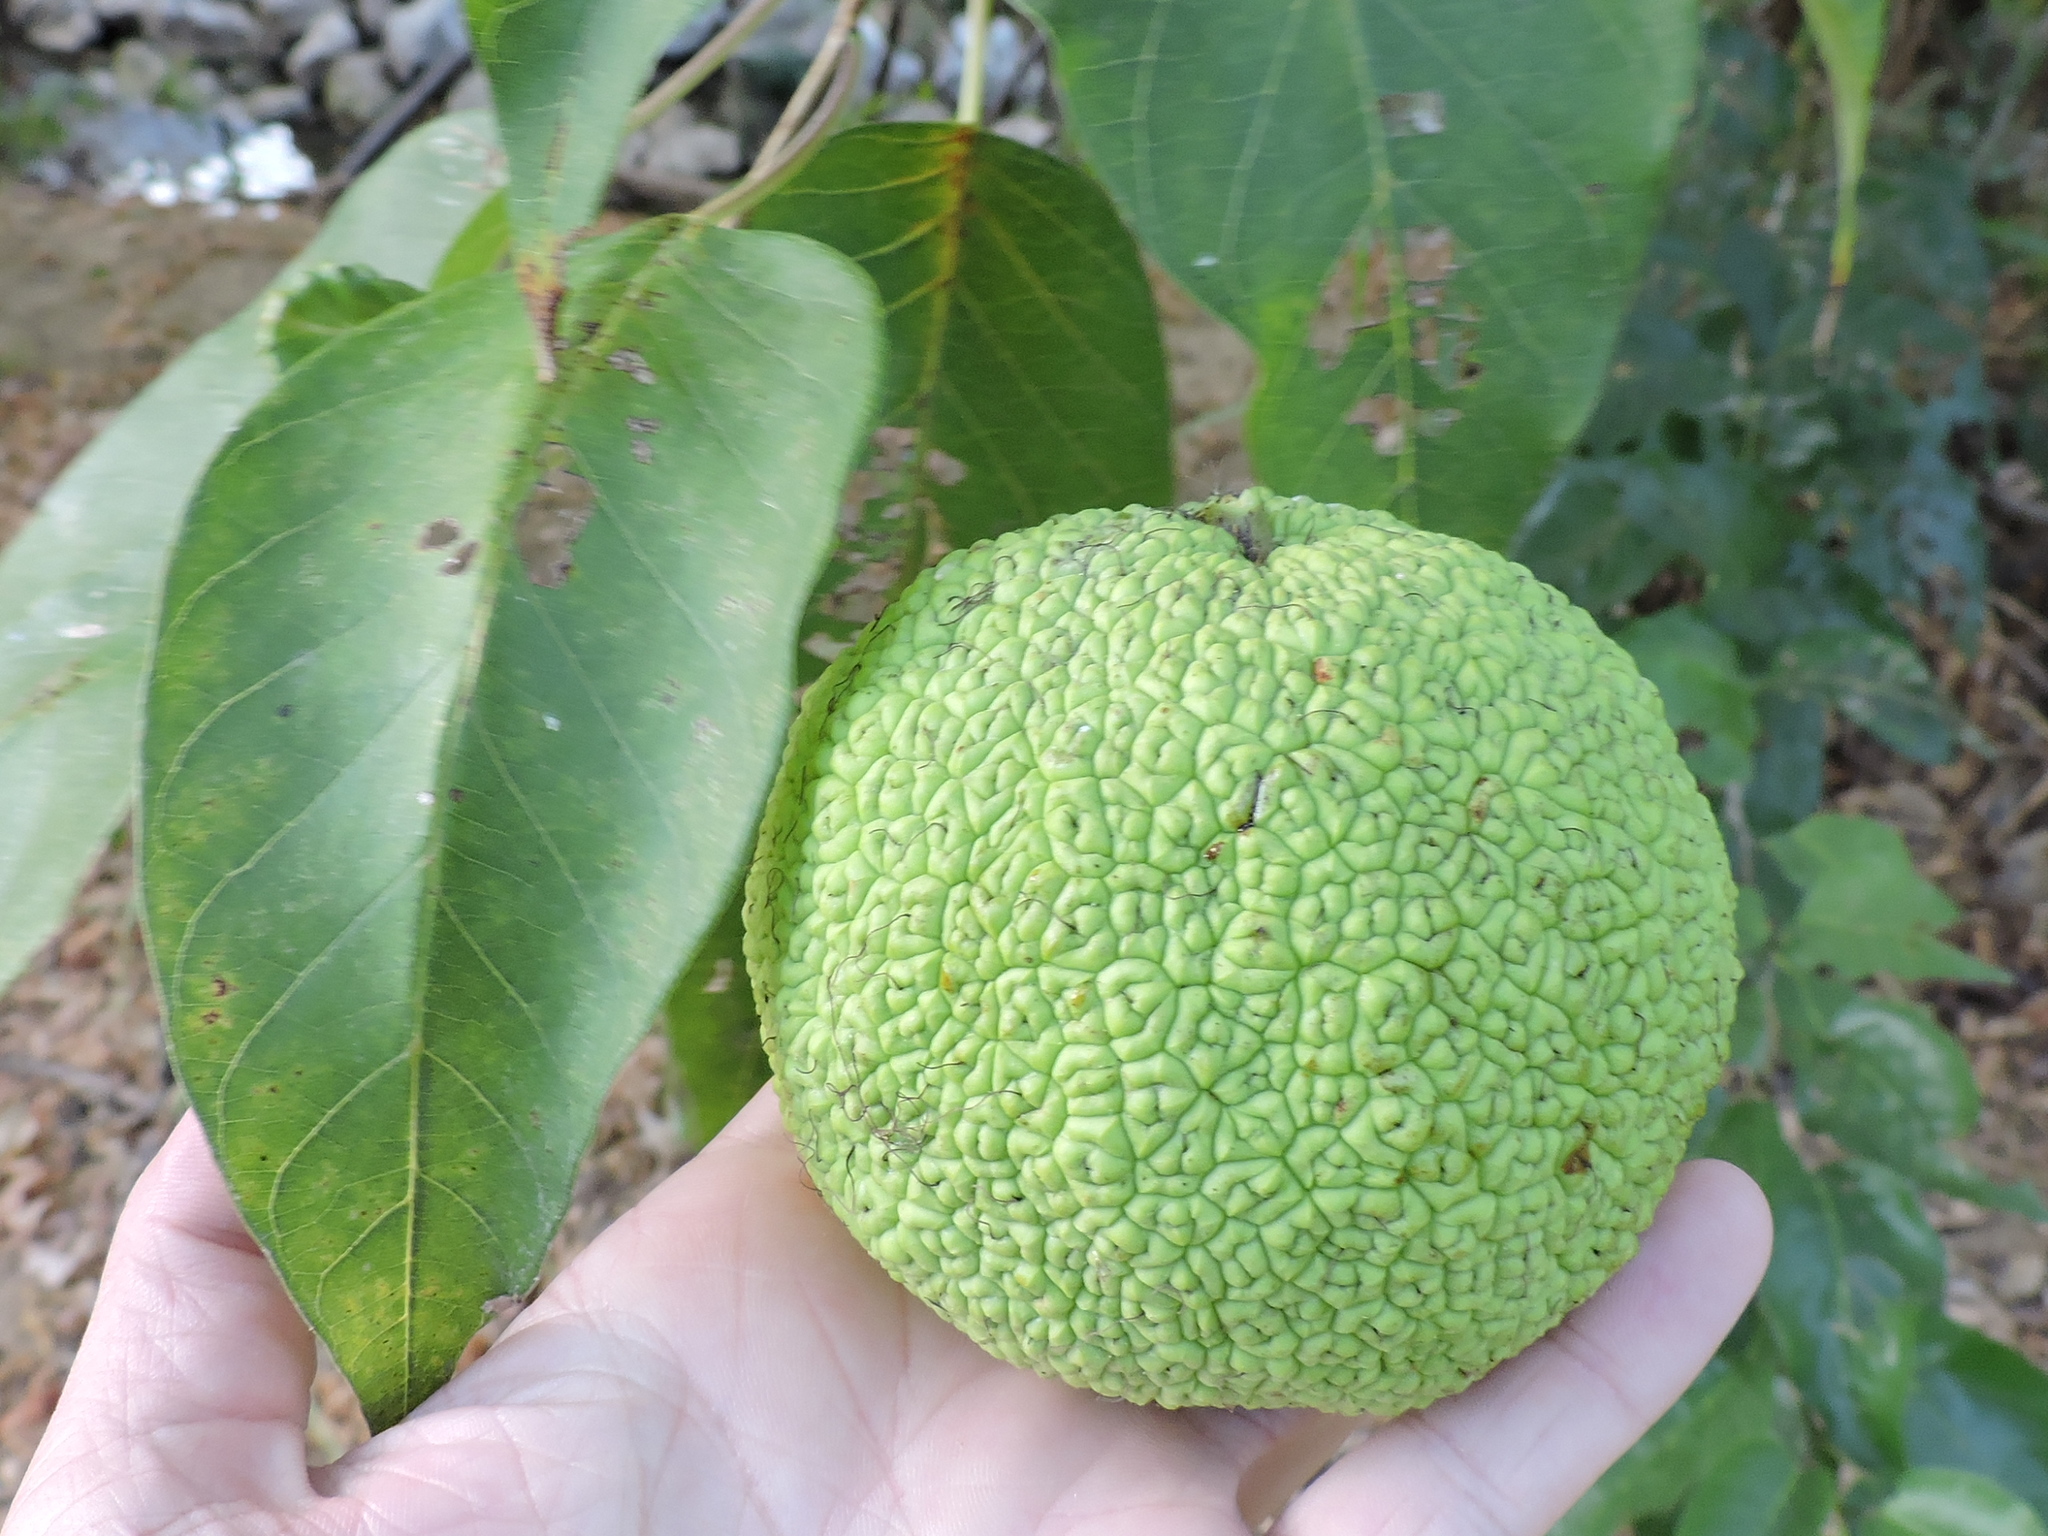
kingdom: Plantae
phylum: Tracheophyta
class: Magnoliopsida
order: Rosales
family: Moraceae
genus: Maclura
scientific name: Maclura pomifera
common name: Osage-orange
